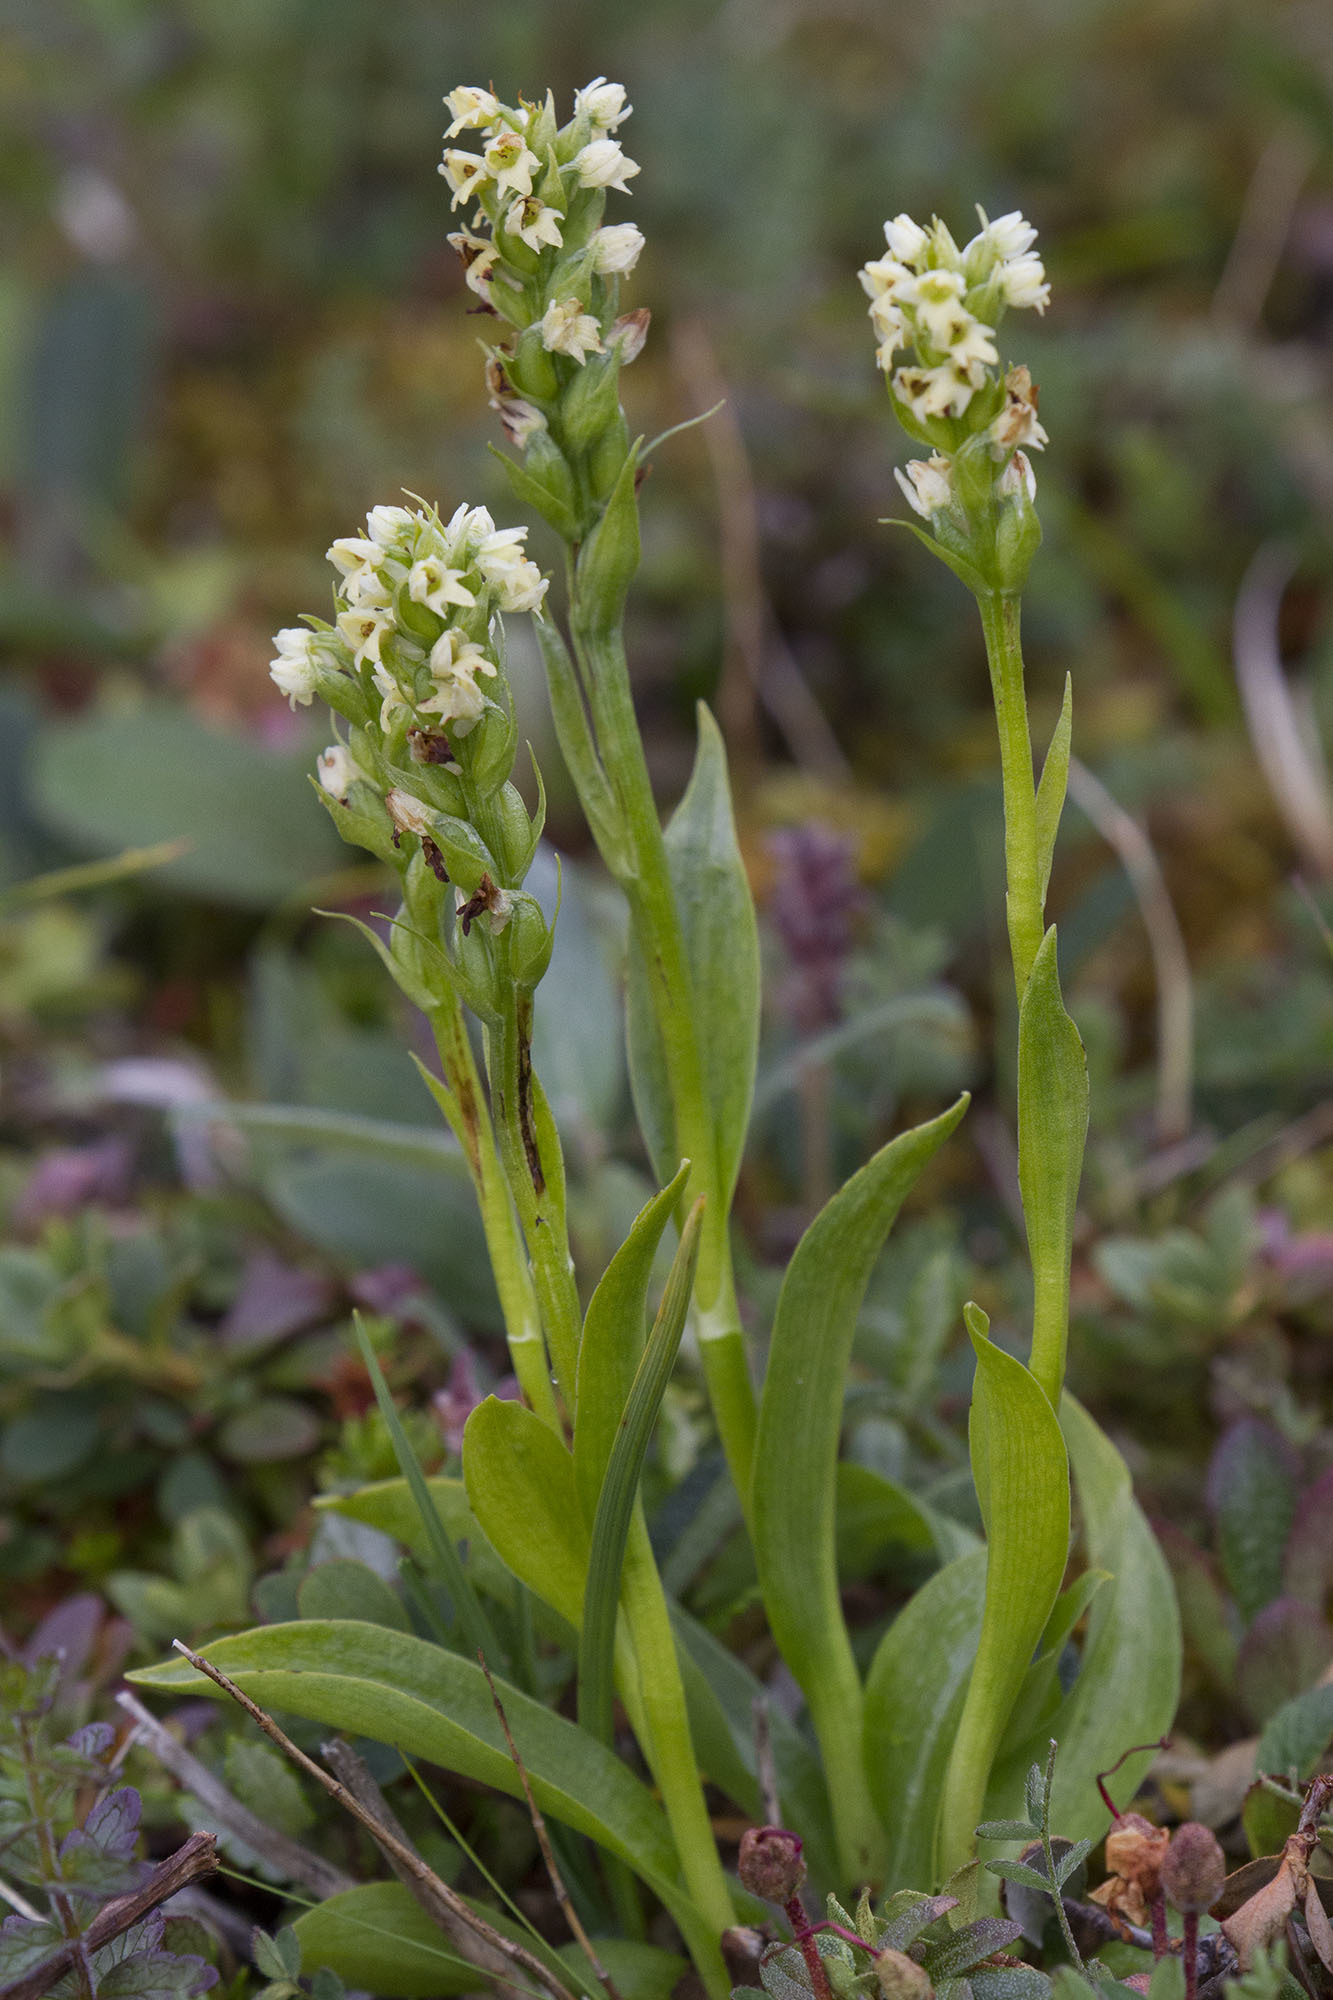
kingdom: Plantae
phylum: Tracheophyta
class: Liliopsida
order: Asparagales
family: Orchidaceae
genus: Pseudorchis
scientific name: Pseudorchis albida
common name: Small-white orchid
